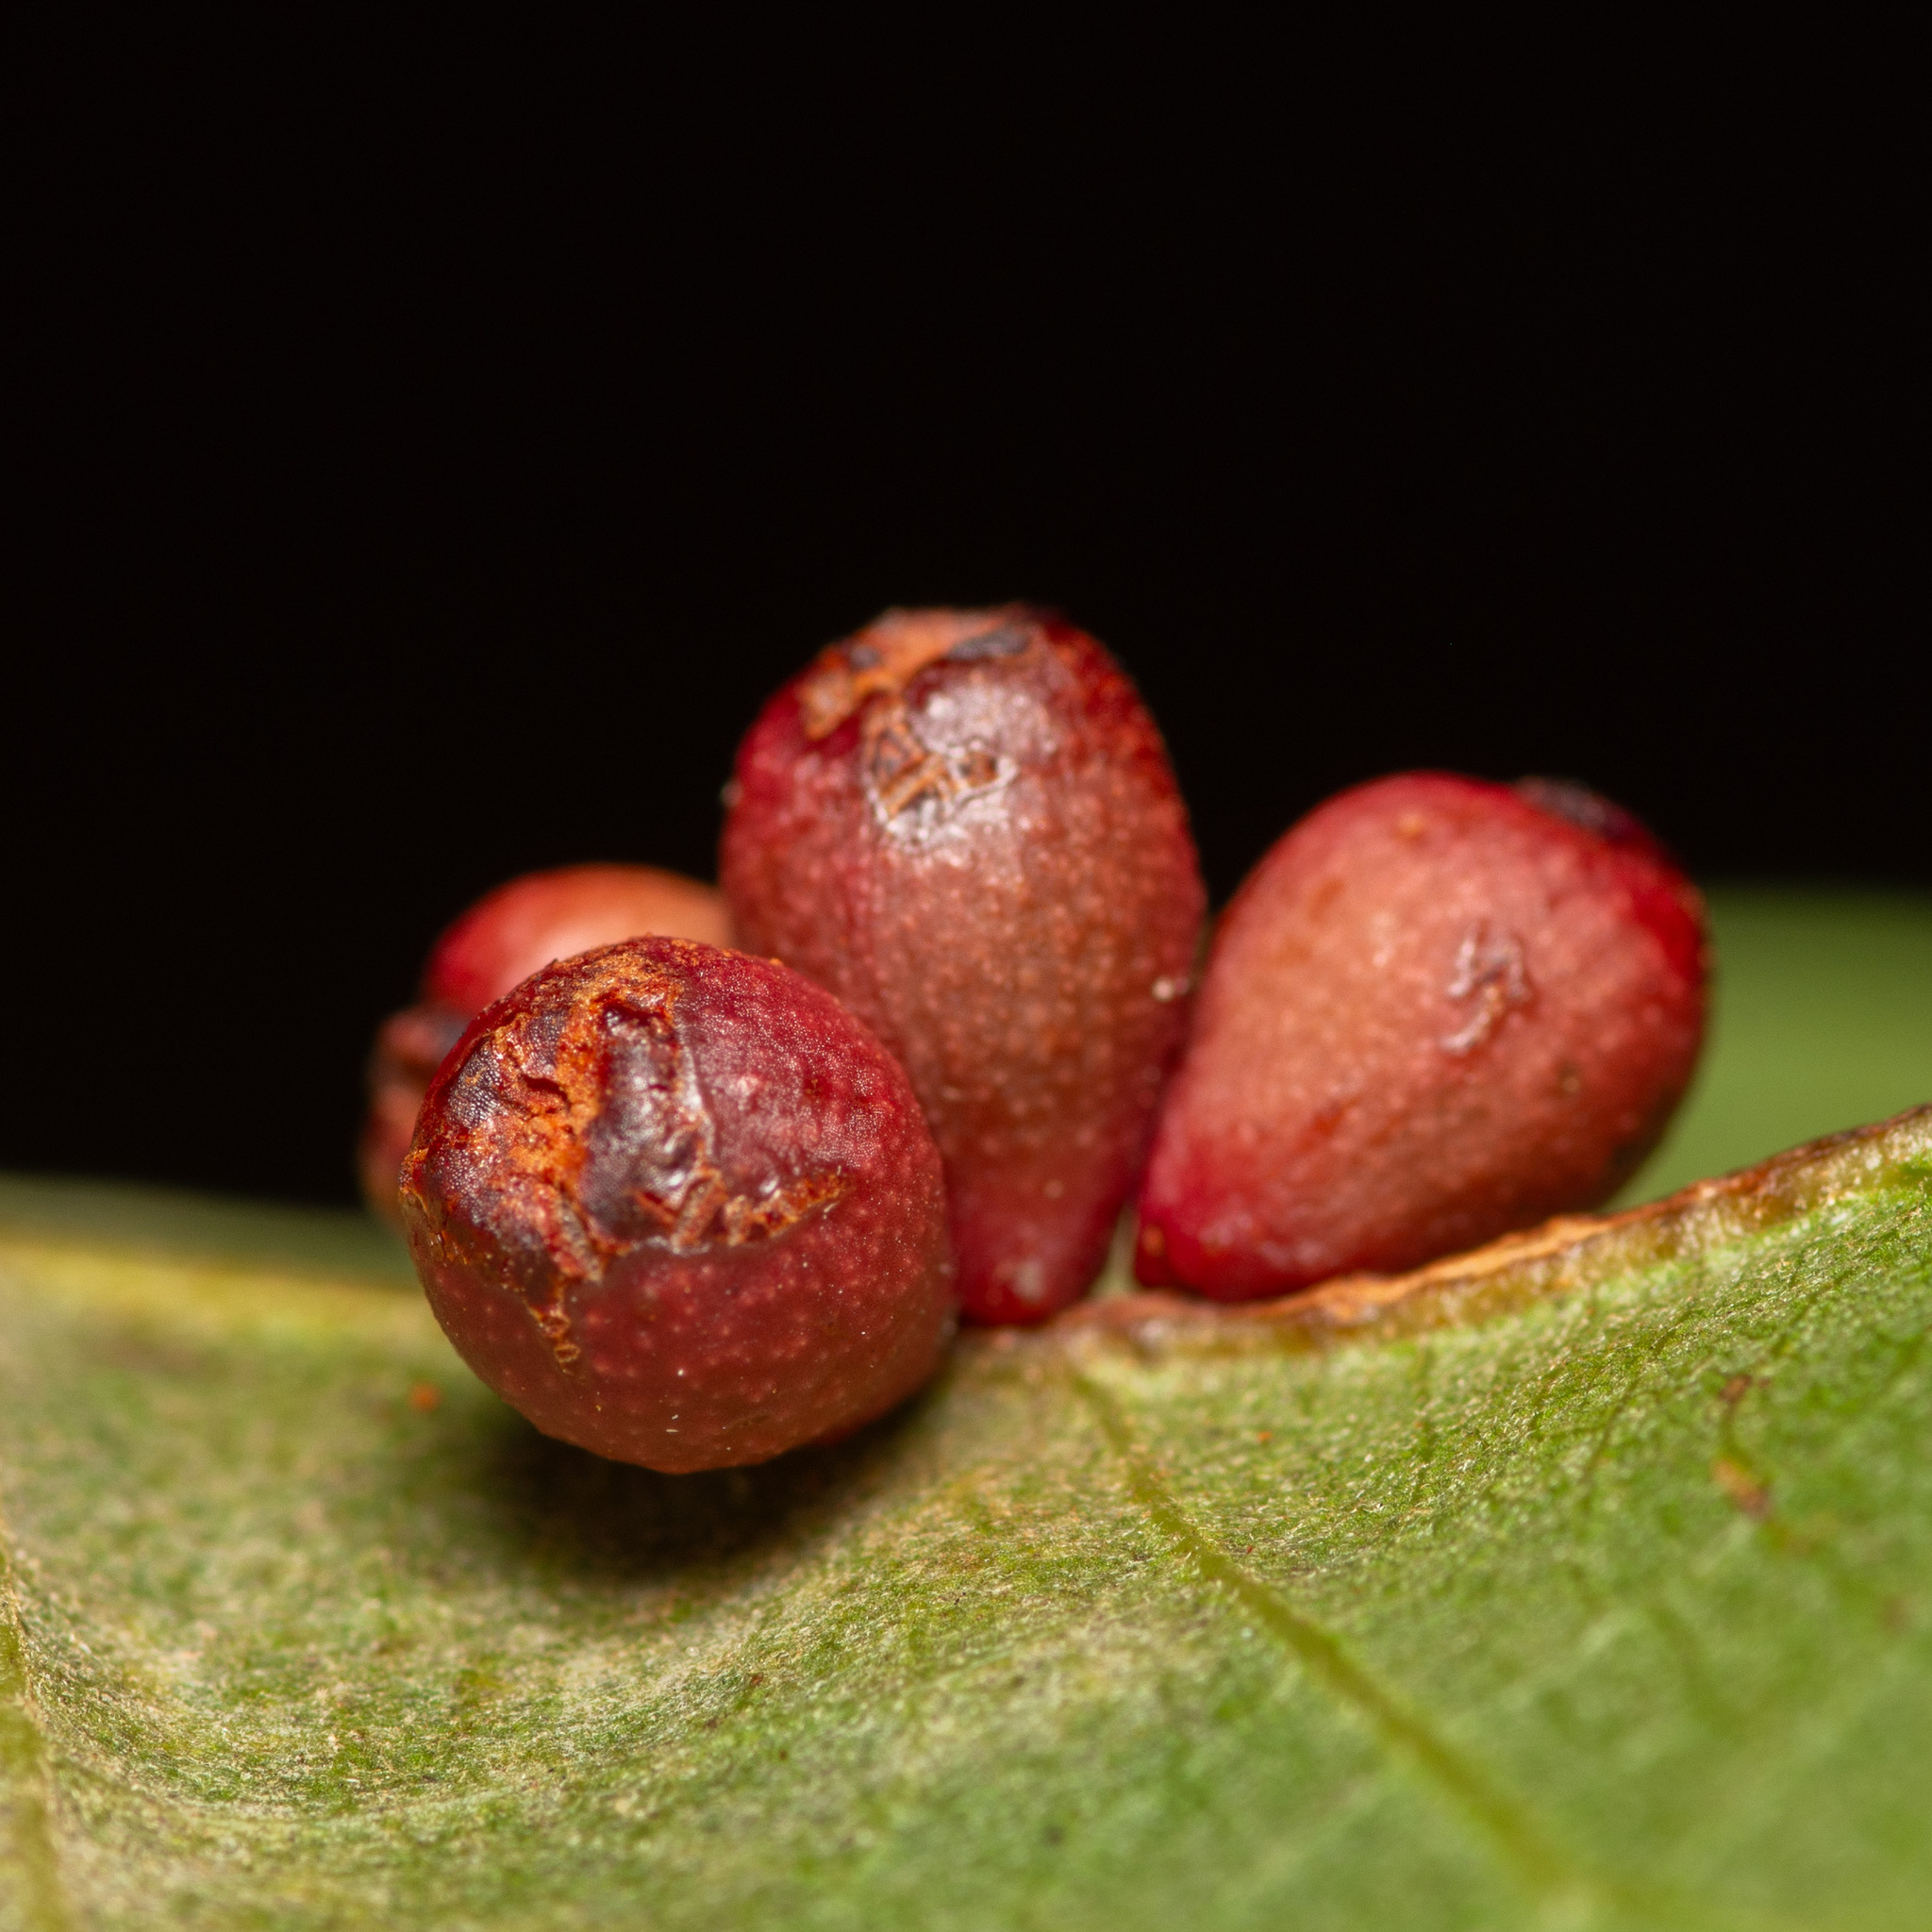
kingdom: Animalia
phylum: Arthropoda
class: Insecta
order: Hymenoptera
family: Cynipidae
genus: Andricus
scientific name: Andricus lustrans
